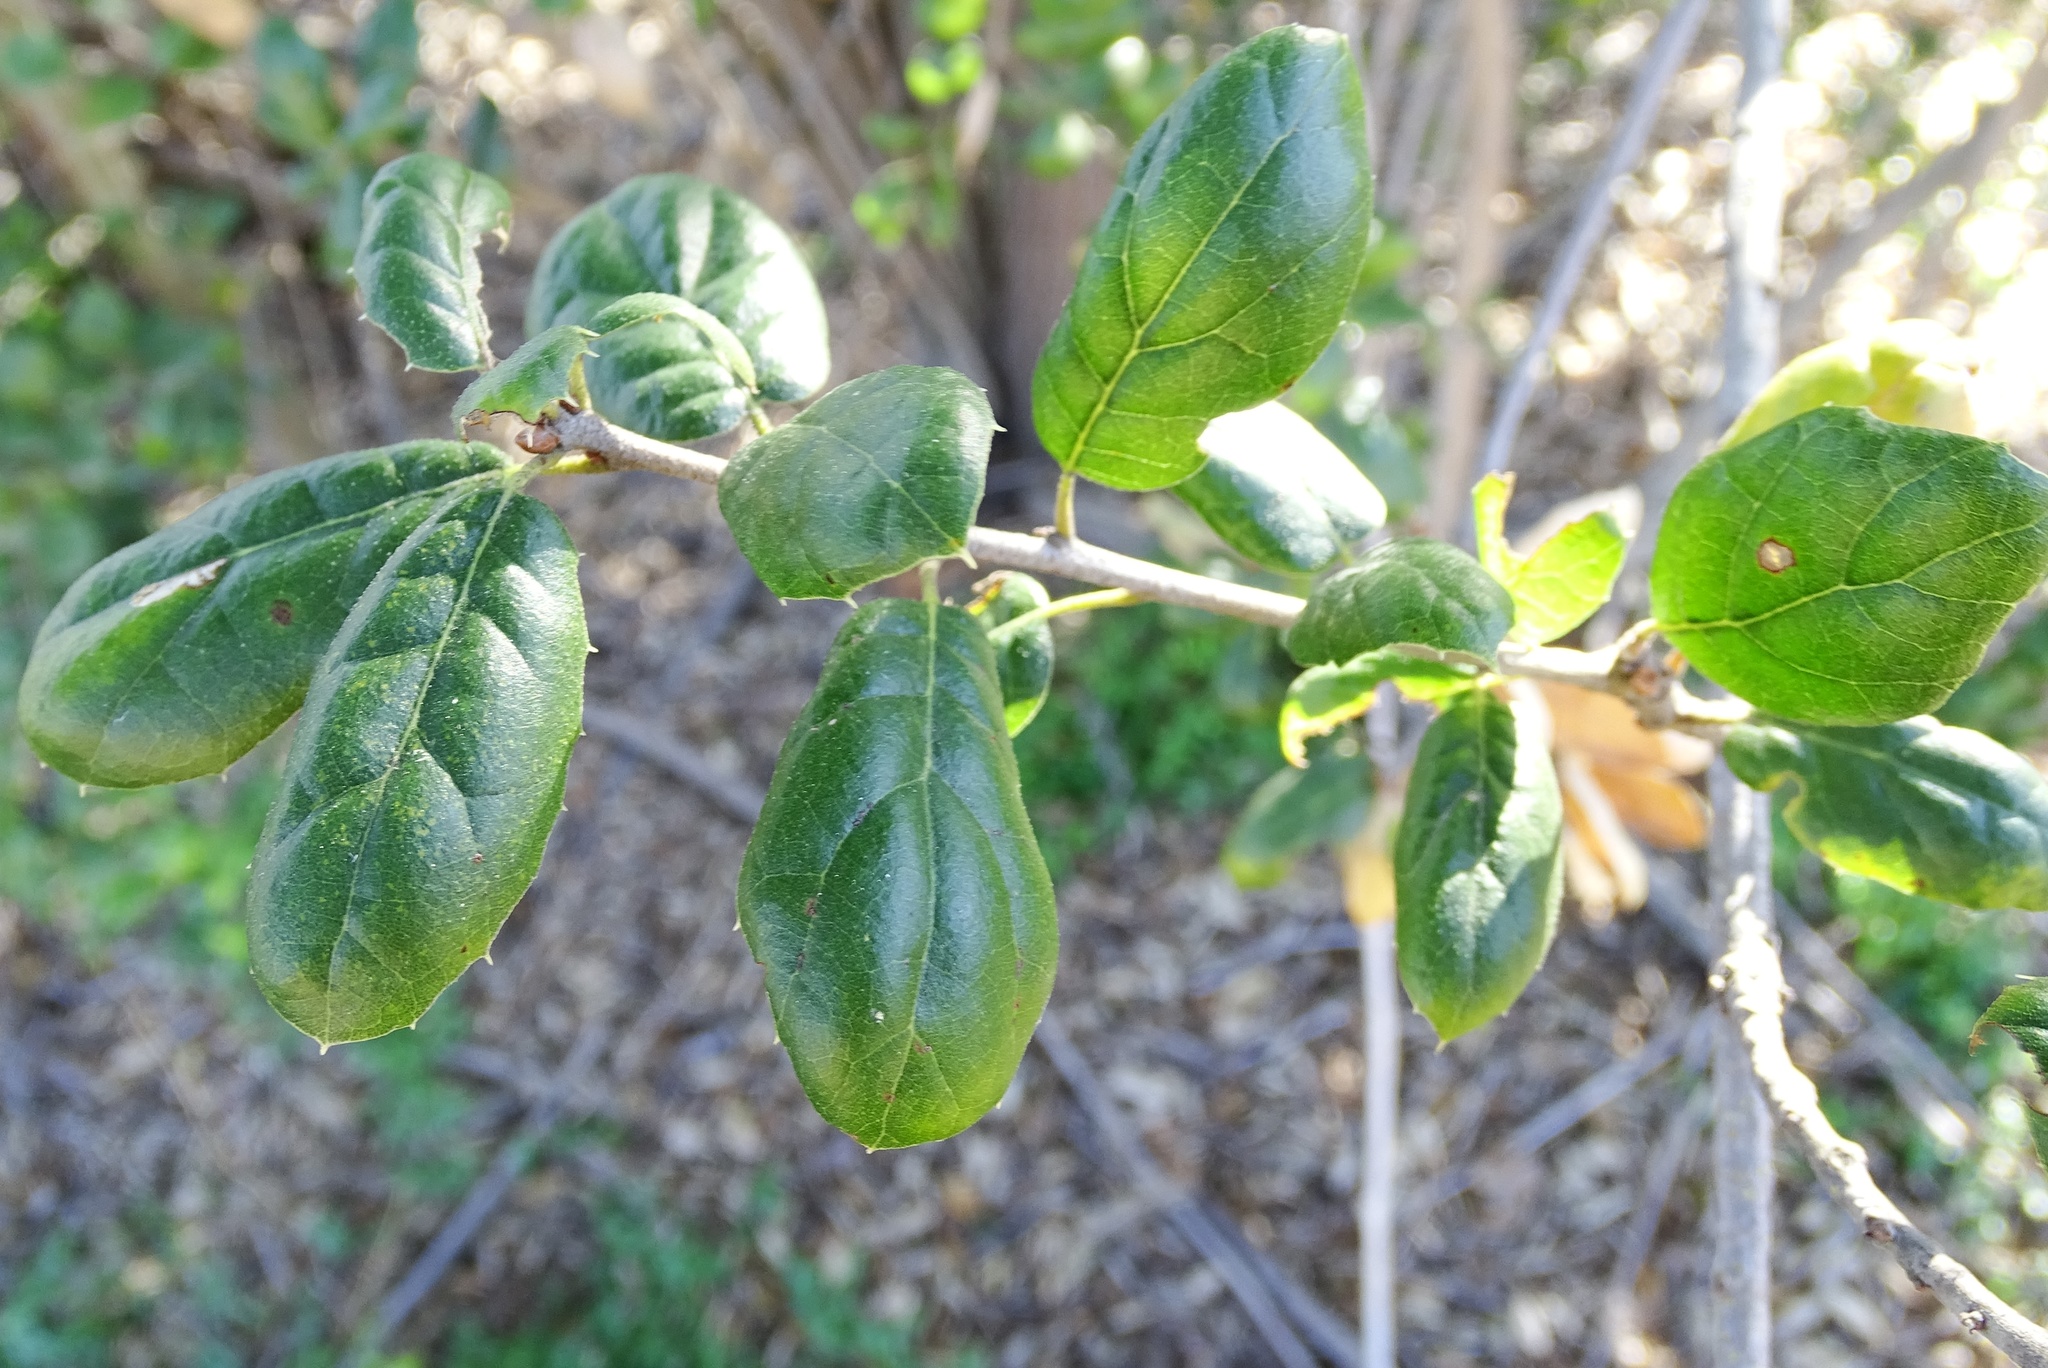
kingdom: Plantae
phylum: Tracheophyta
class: Magnoliopsida
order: Fagales
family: Fagaceae
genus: Quercus
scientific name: Quercus agrifolia
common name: California live oak
